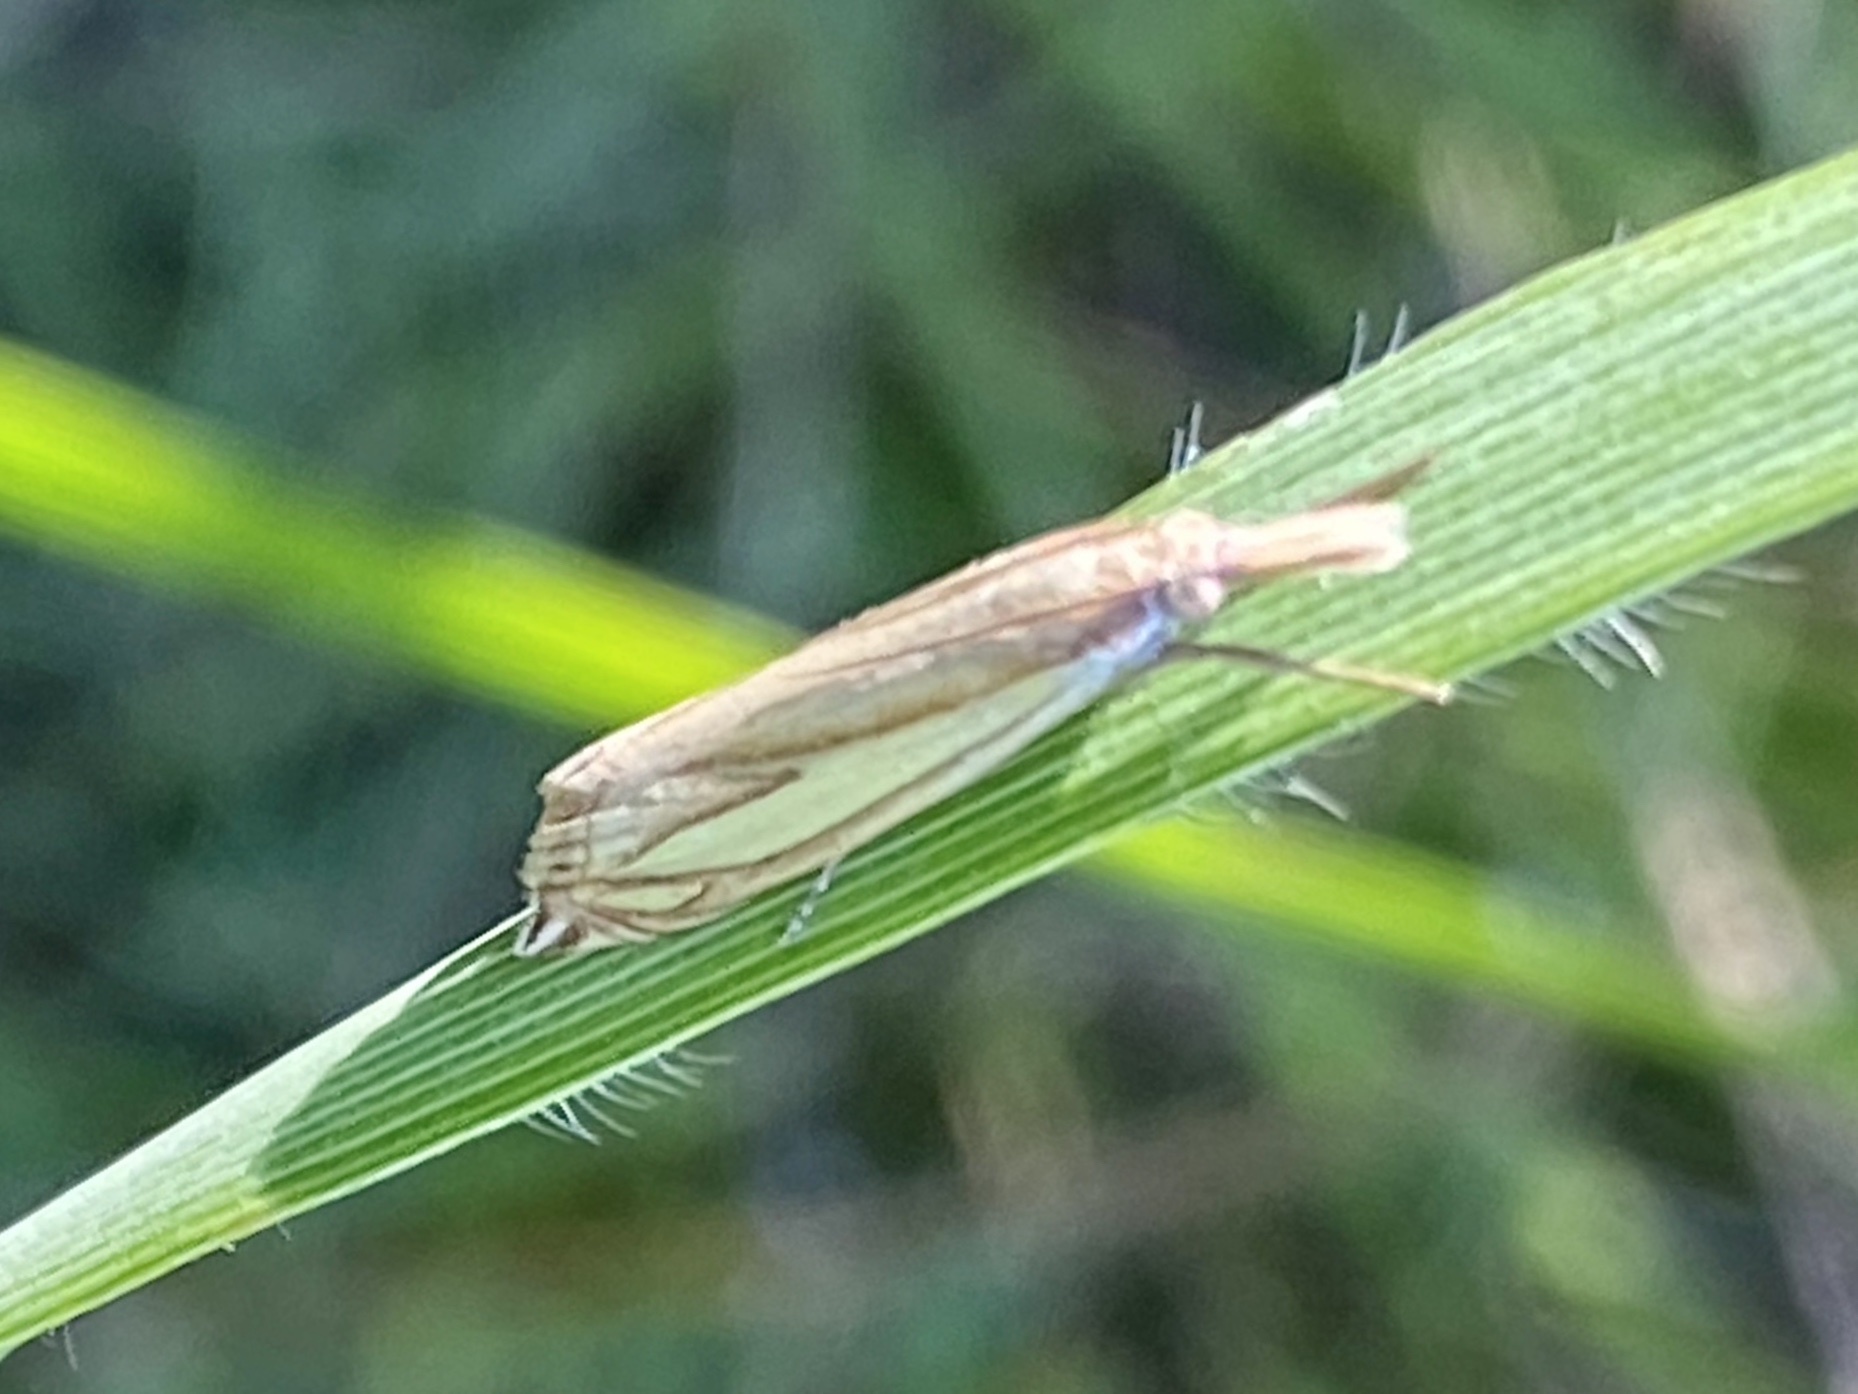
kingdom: Animalia
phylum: Arthropoda
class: Insecta
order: Lepidoptera
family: Crambidae
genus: Crambus
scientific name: Crambus satrapellus
